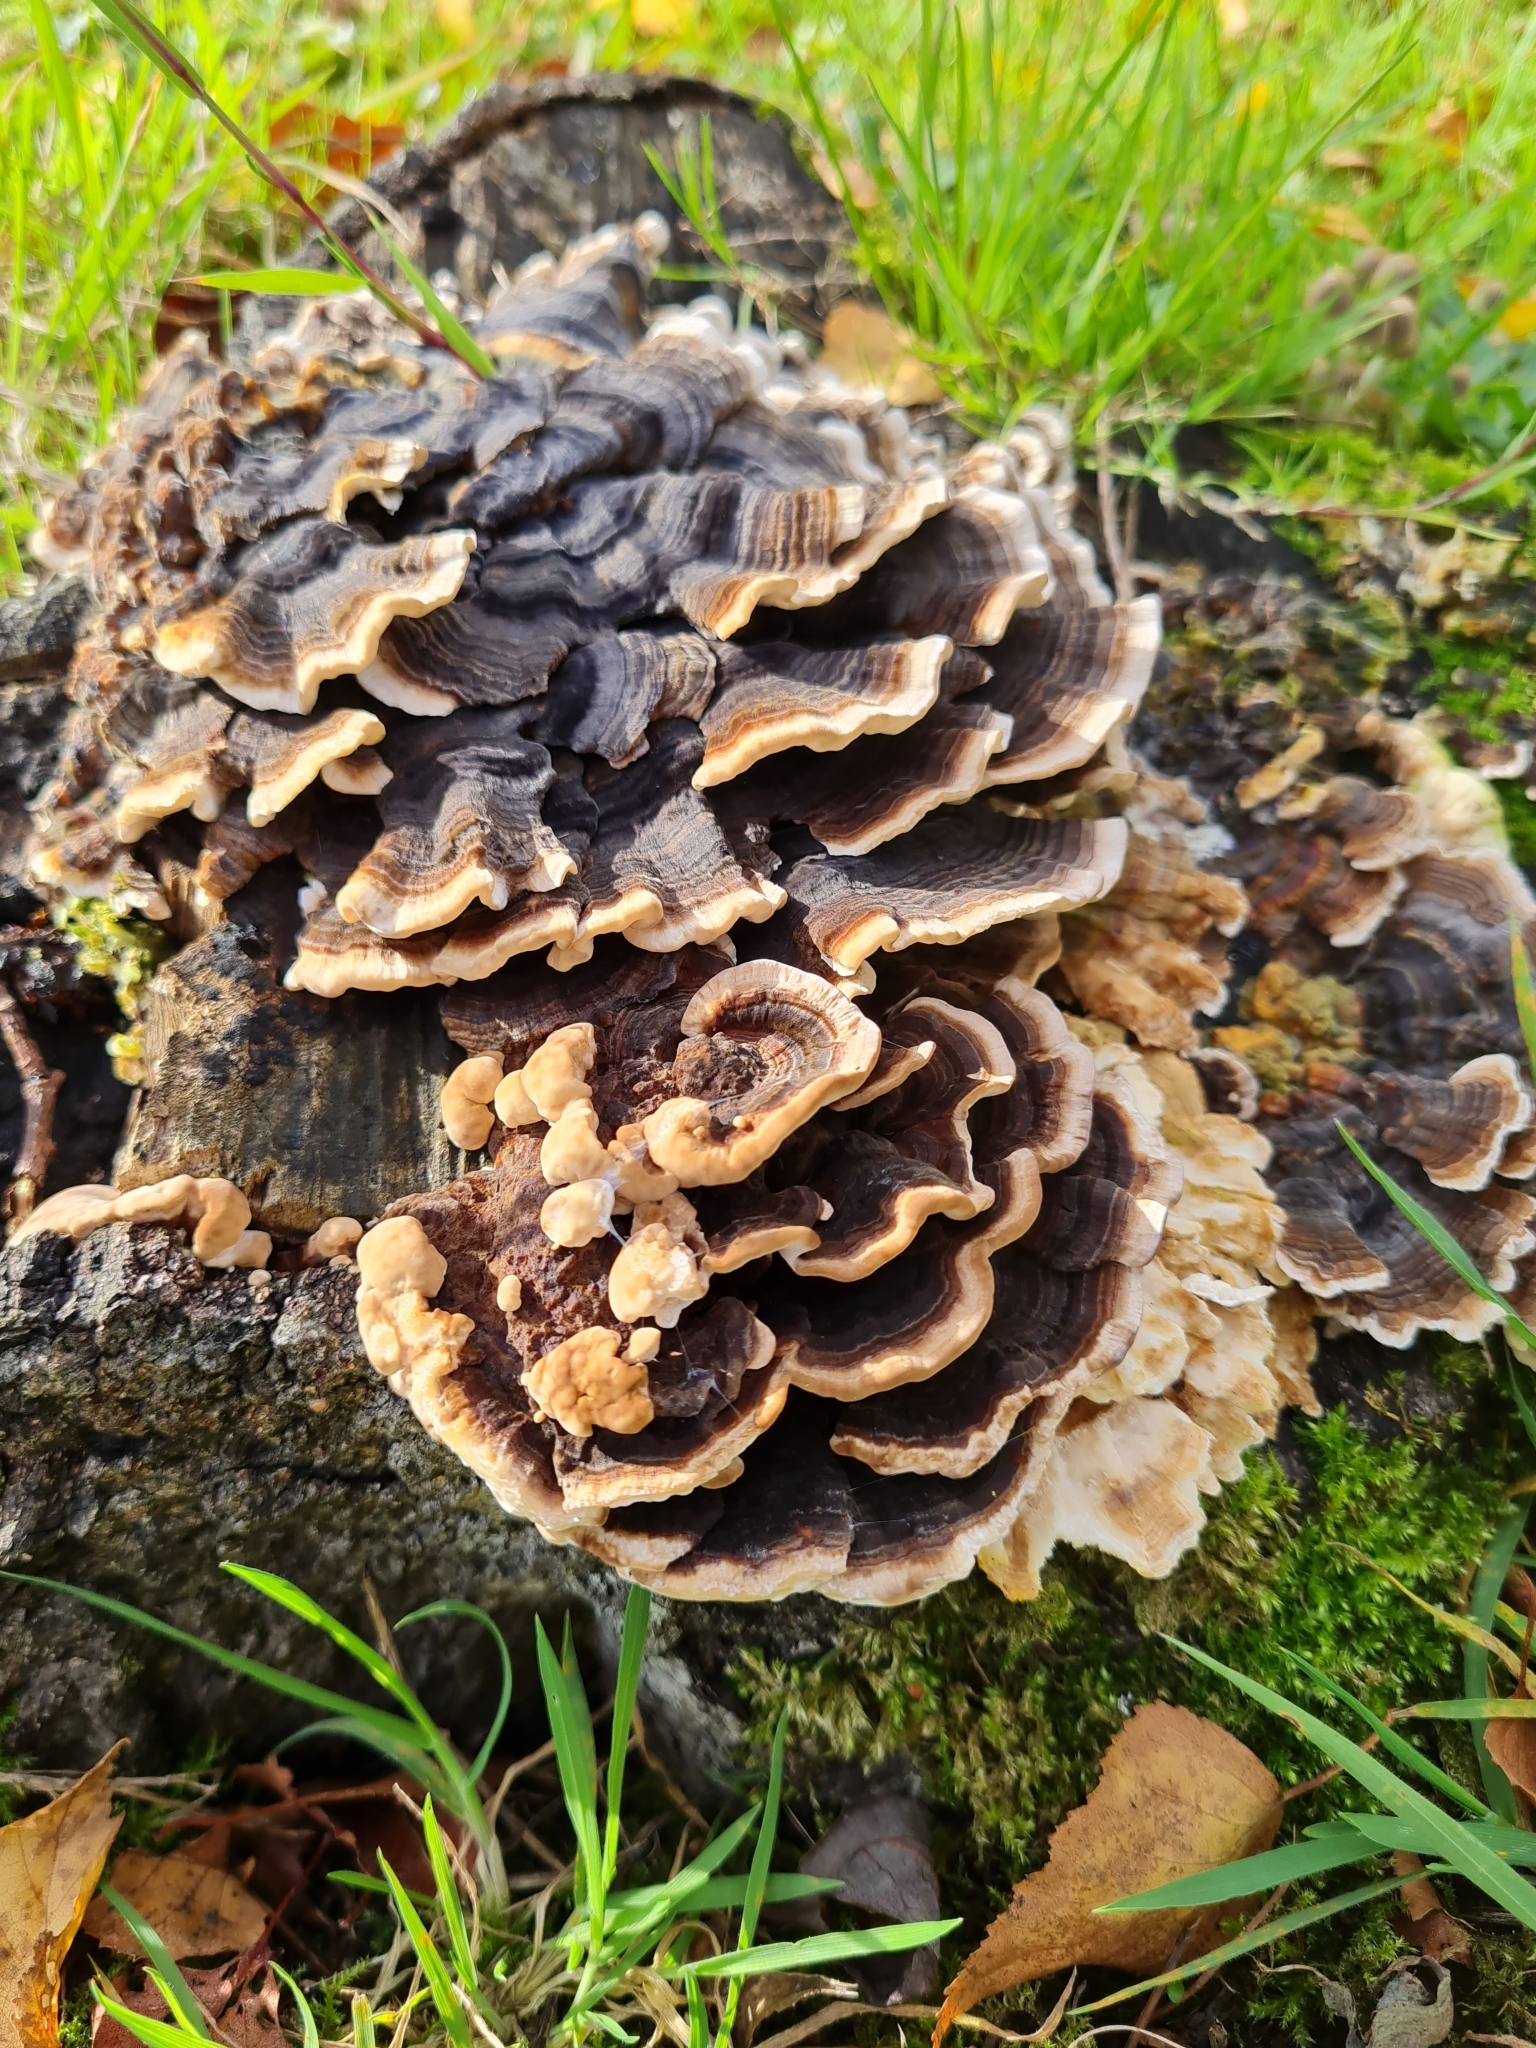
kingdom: Fungi
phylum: Basidiomycota
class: Agaricomycetes
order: Polyporales
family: Polyporaceae
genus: Trametes
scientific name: Trametes versicolor
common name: Turkeytail
